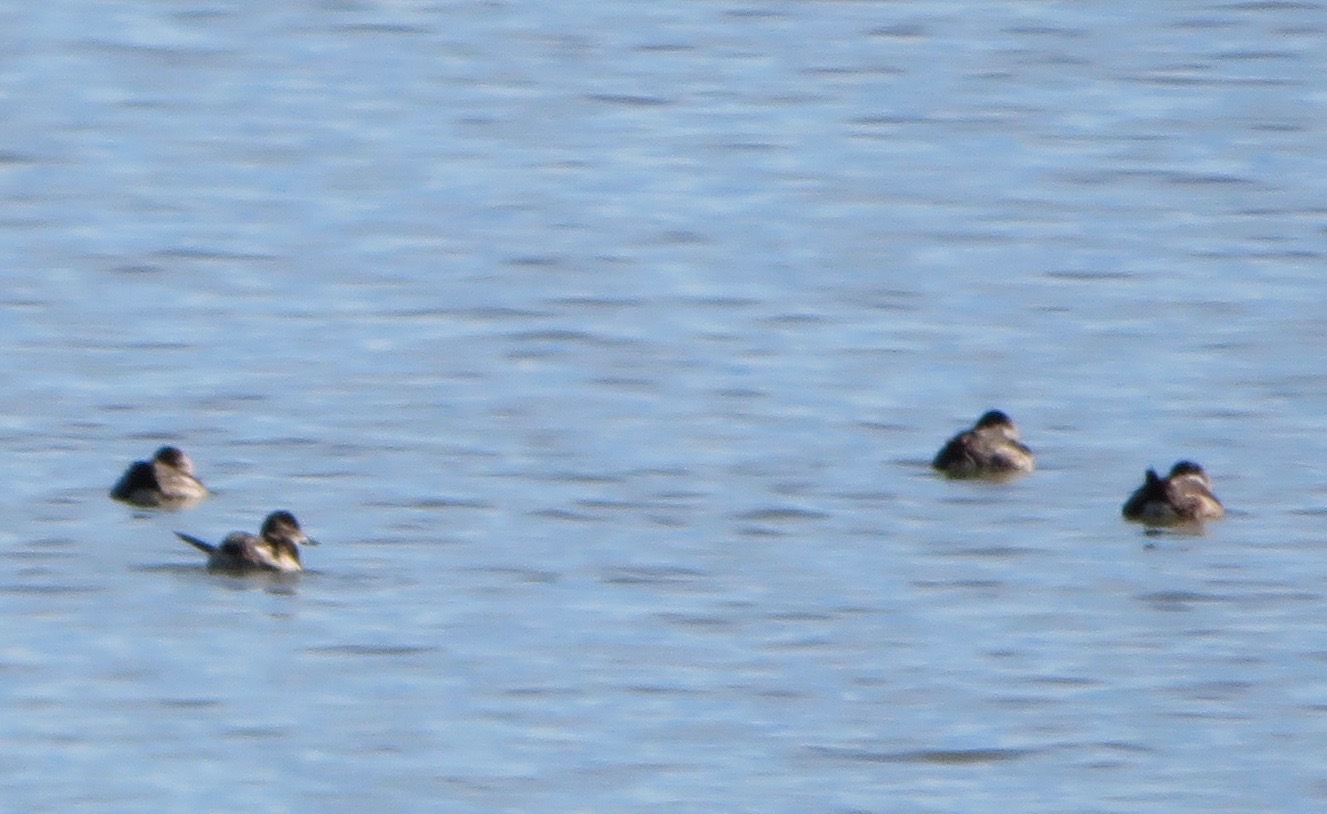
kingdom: Animalia
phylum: Chordata
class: Aves
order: Anseriformes
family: Anatidae
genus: Oxyura
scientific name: Oxyura jamaicensis
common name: Ruddy duck
